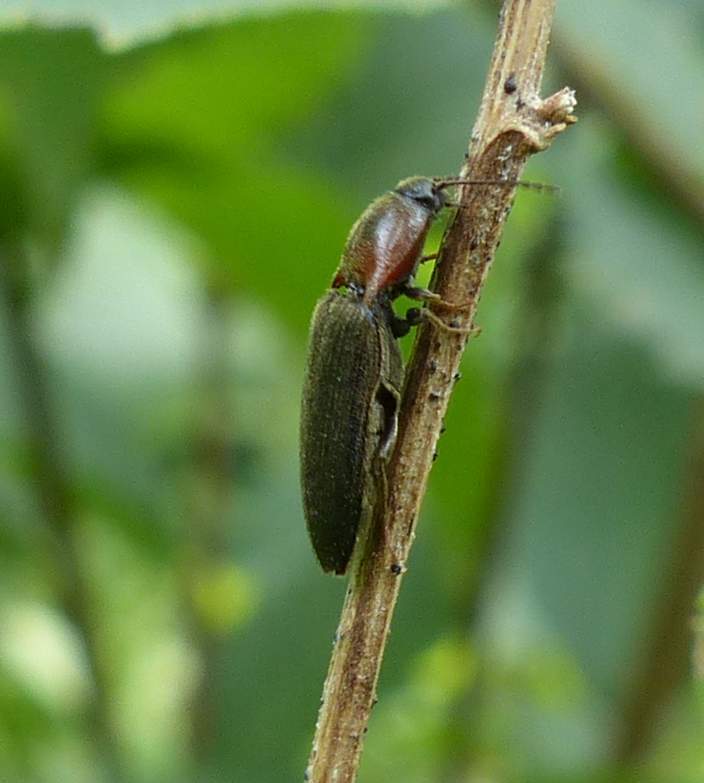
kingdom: Animalia
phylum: Arthropoda
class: Insecta
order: Coleoptera
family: Elateridae
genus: Ampedus
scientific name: Ampedus
